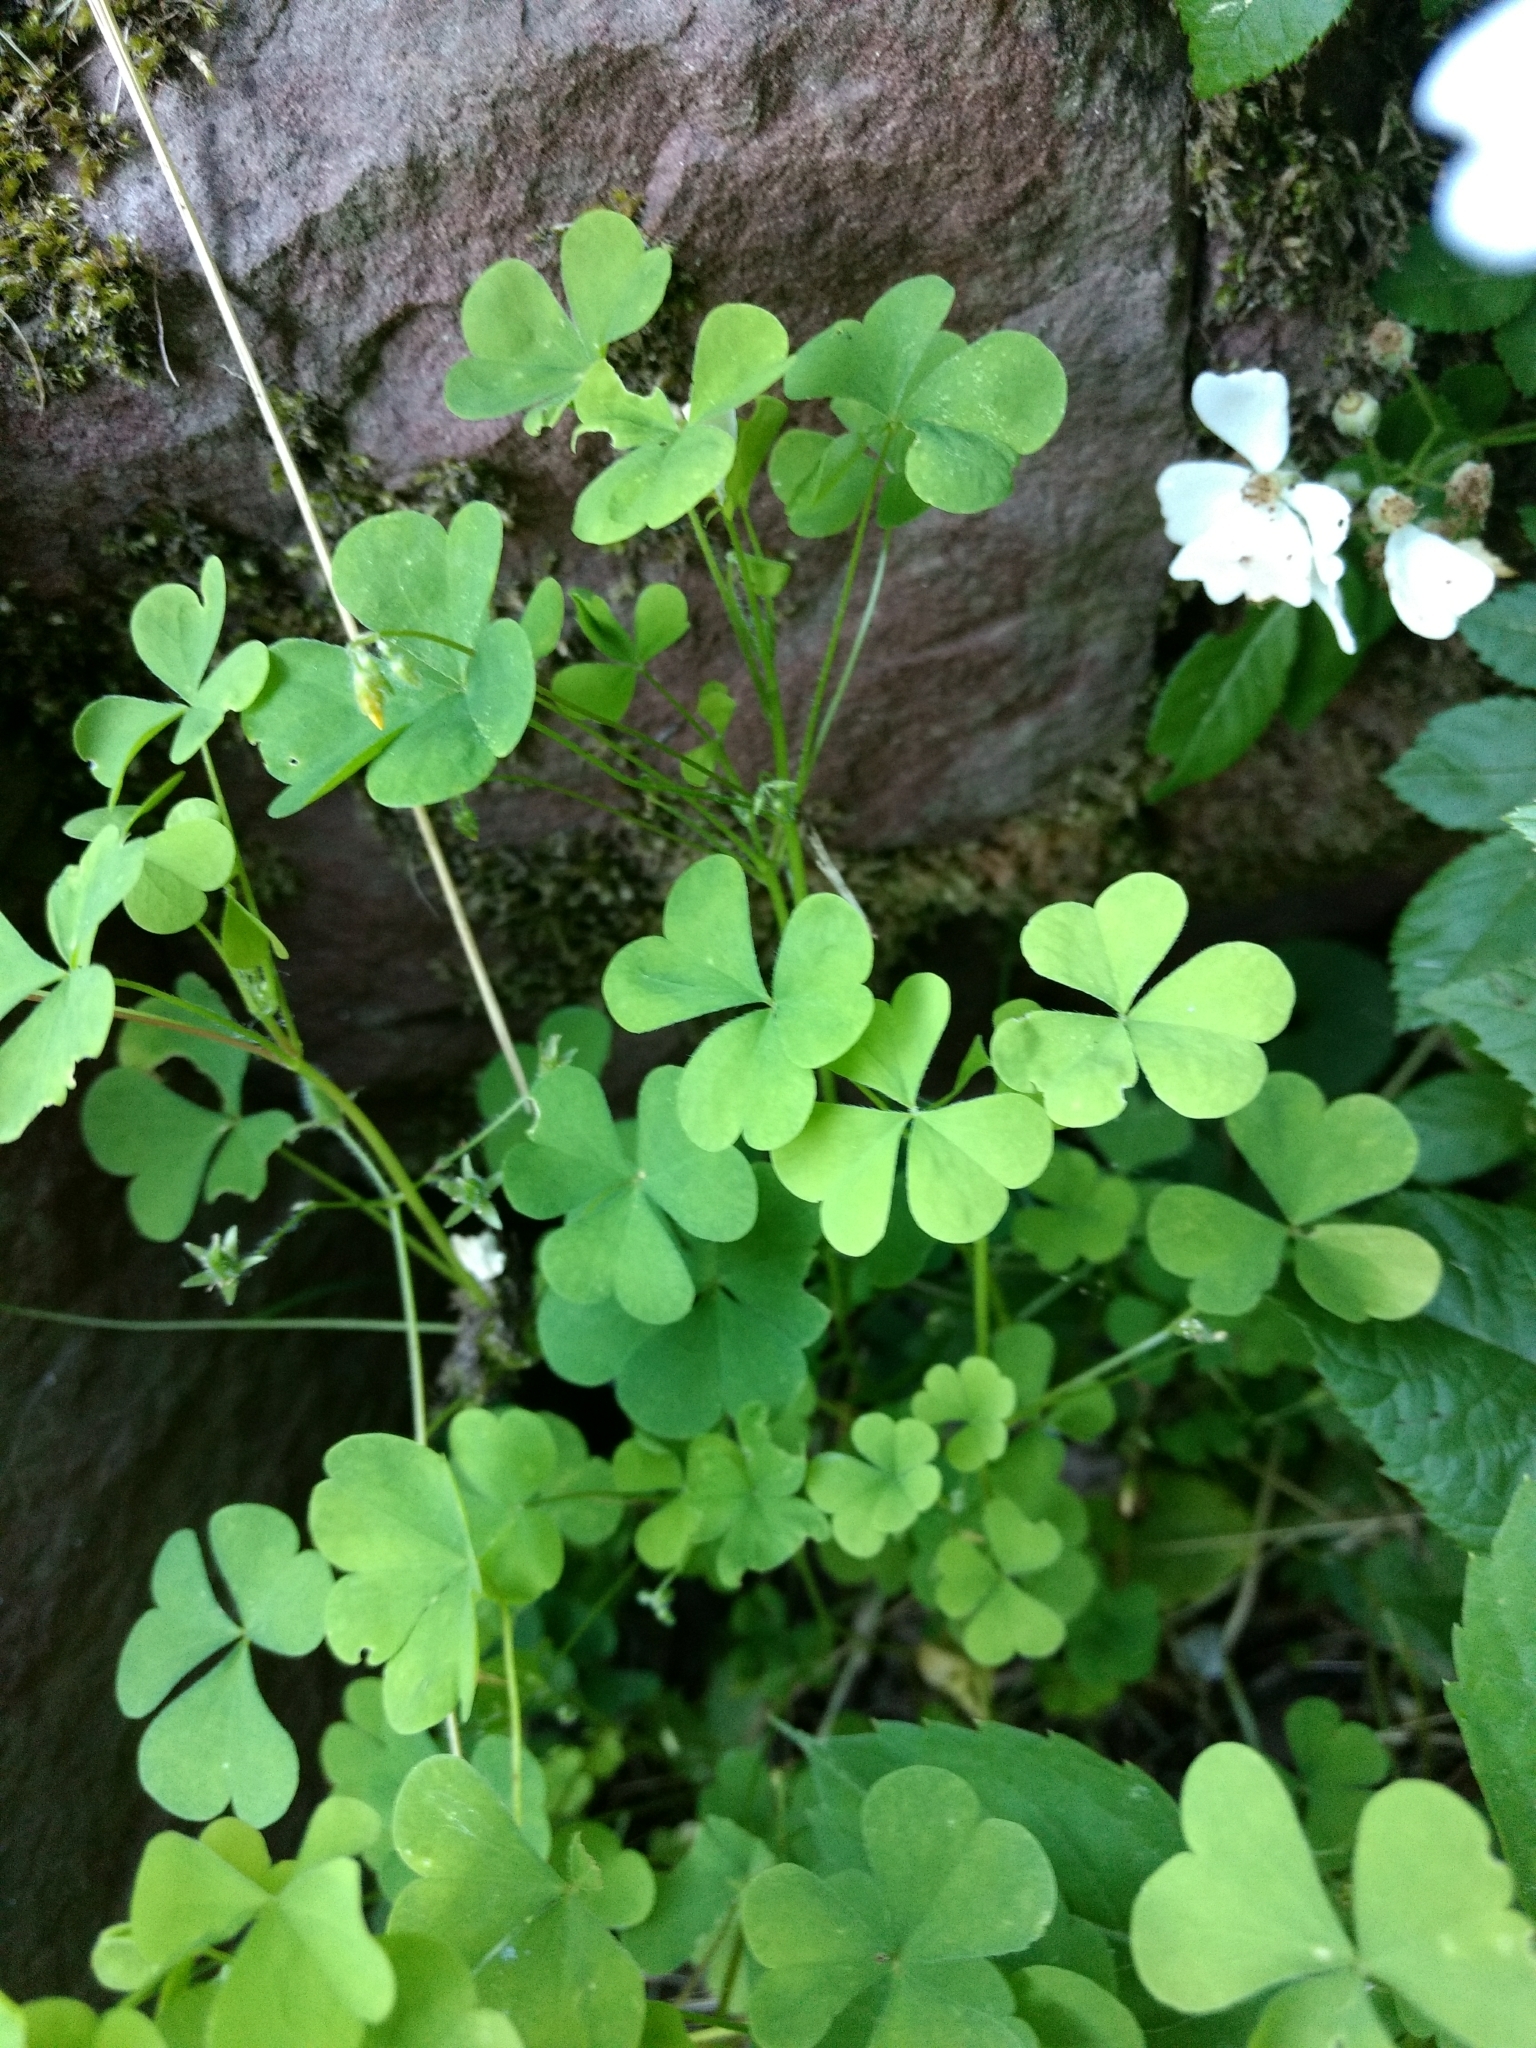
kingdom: Plantae
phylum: Tracheophyta
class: Magnoliopsida
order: Oxalidales
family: Oxalidaceae
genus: Oxalis
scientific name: Oxalis stricta
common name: Upright yellow-sorrel
